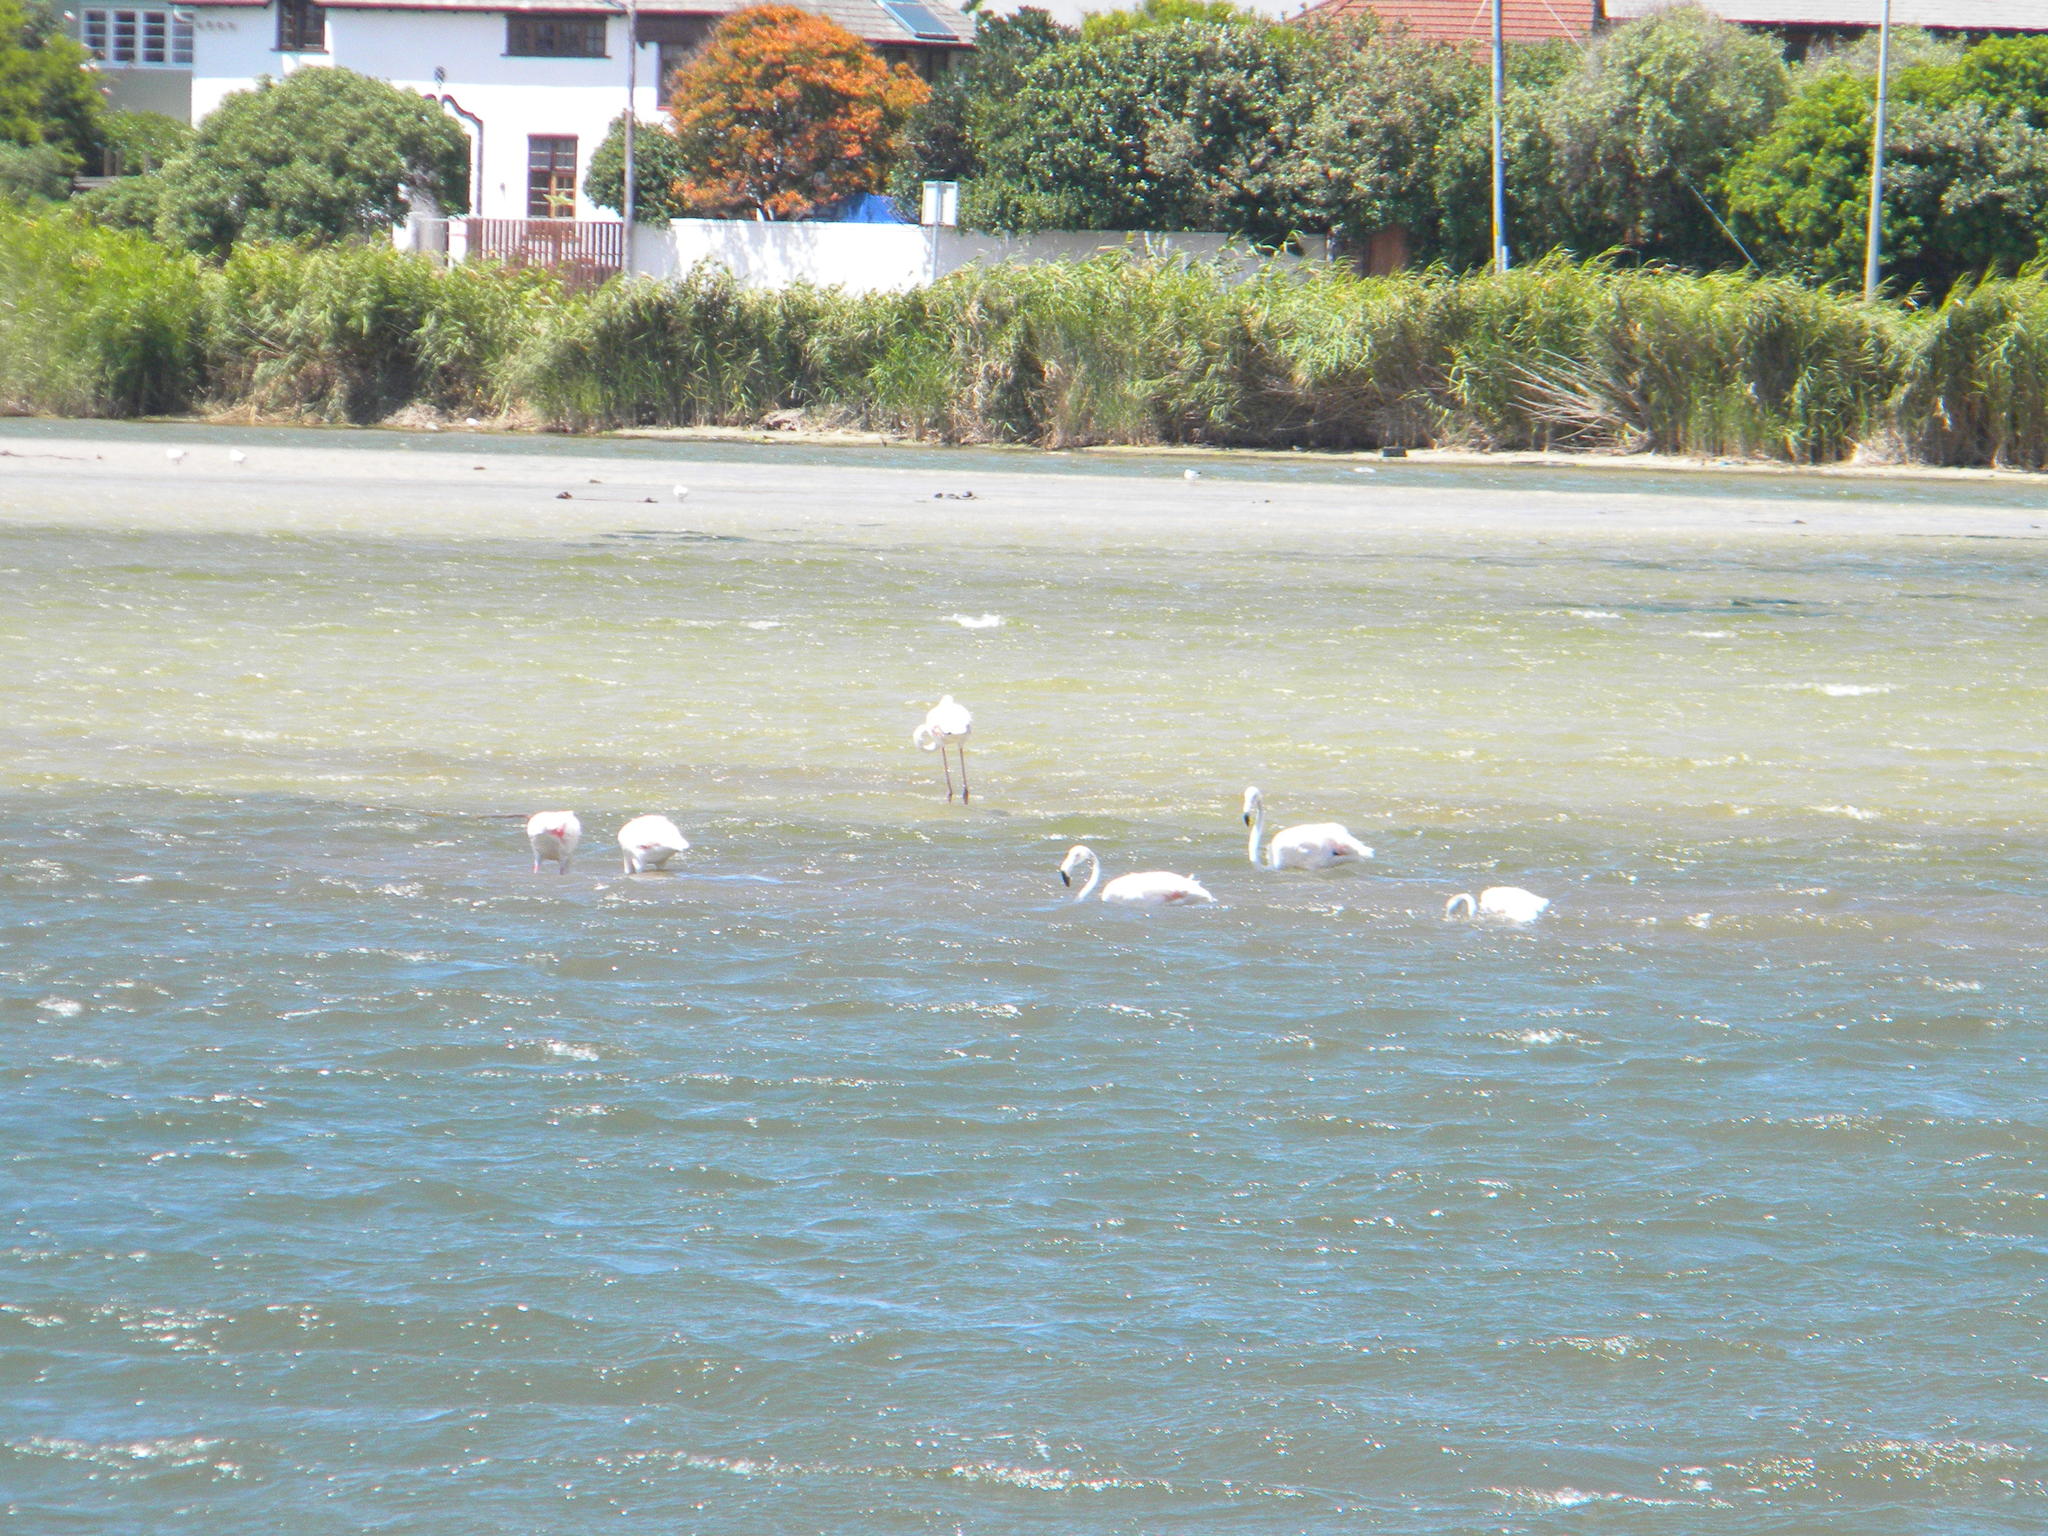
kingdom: Animalia
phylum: Chordata
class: Aves
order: Phoenicopteriformes
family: Phoenicopteridae
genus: Phoenicopterus
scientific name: Phoenicopterus roseus
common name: Greater flamingo
